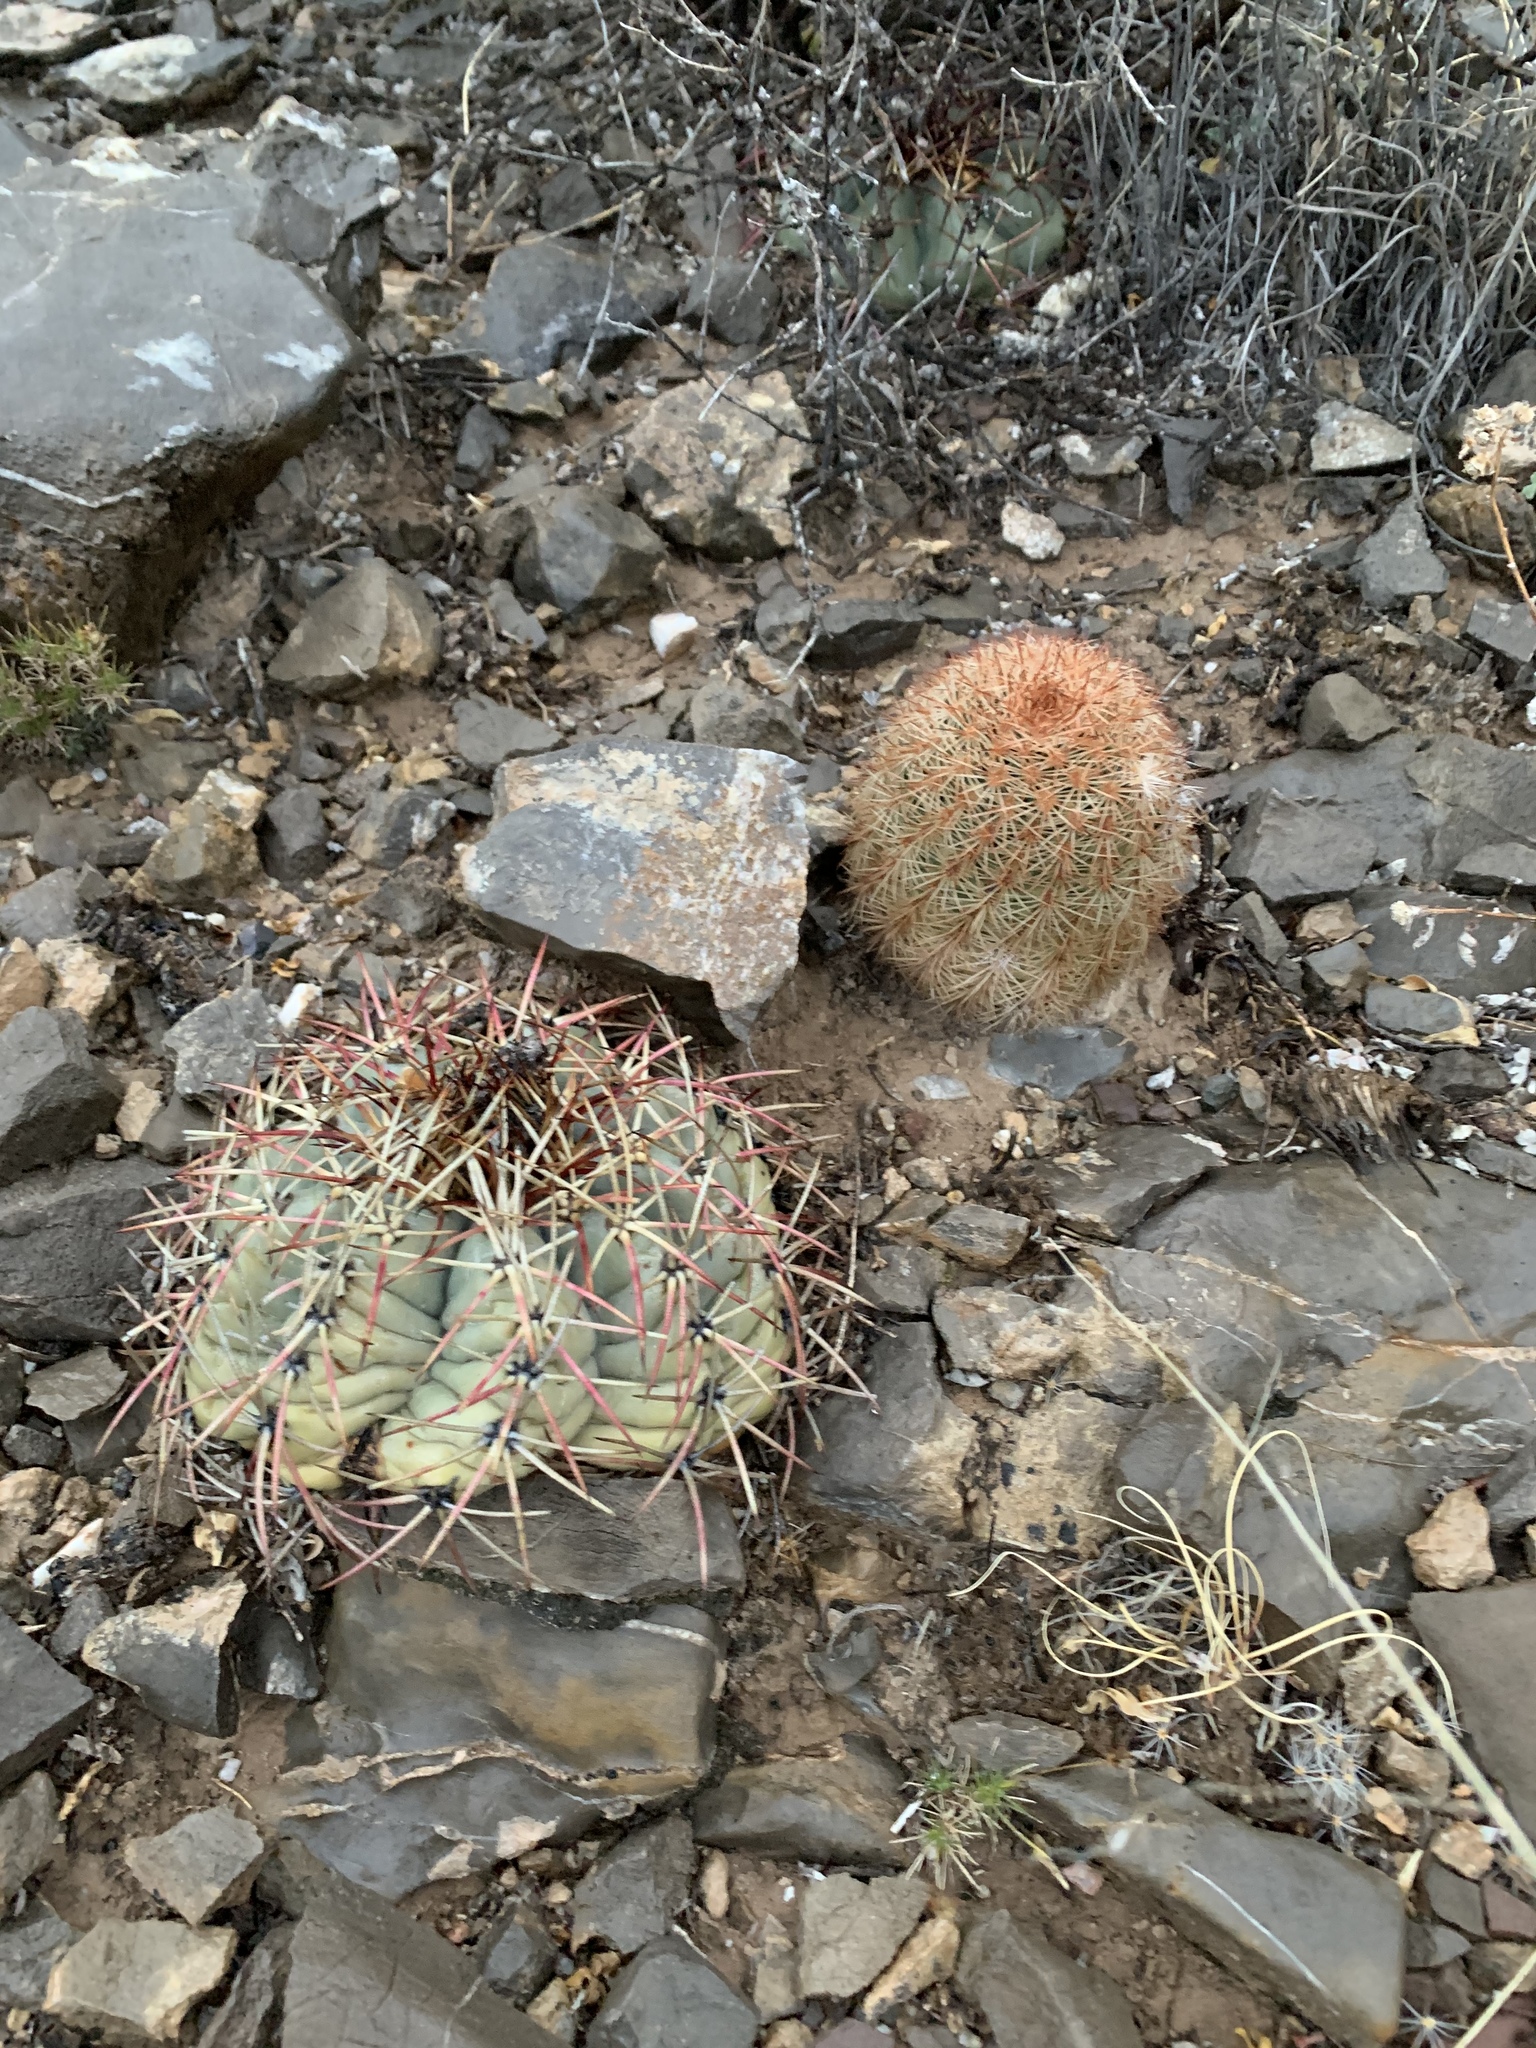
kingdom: Plantae
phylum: Tracheophyta
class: Magnoliopsida
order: Caryophyllales
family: Cactaceae
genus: Echinocactus
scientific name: Echinocactus horizonthalonius
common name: Devilshead
